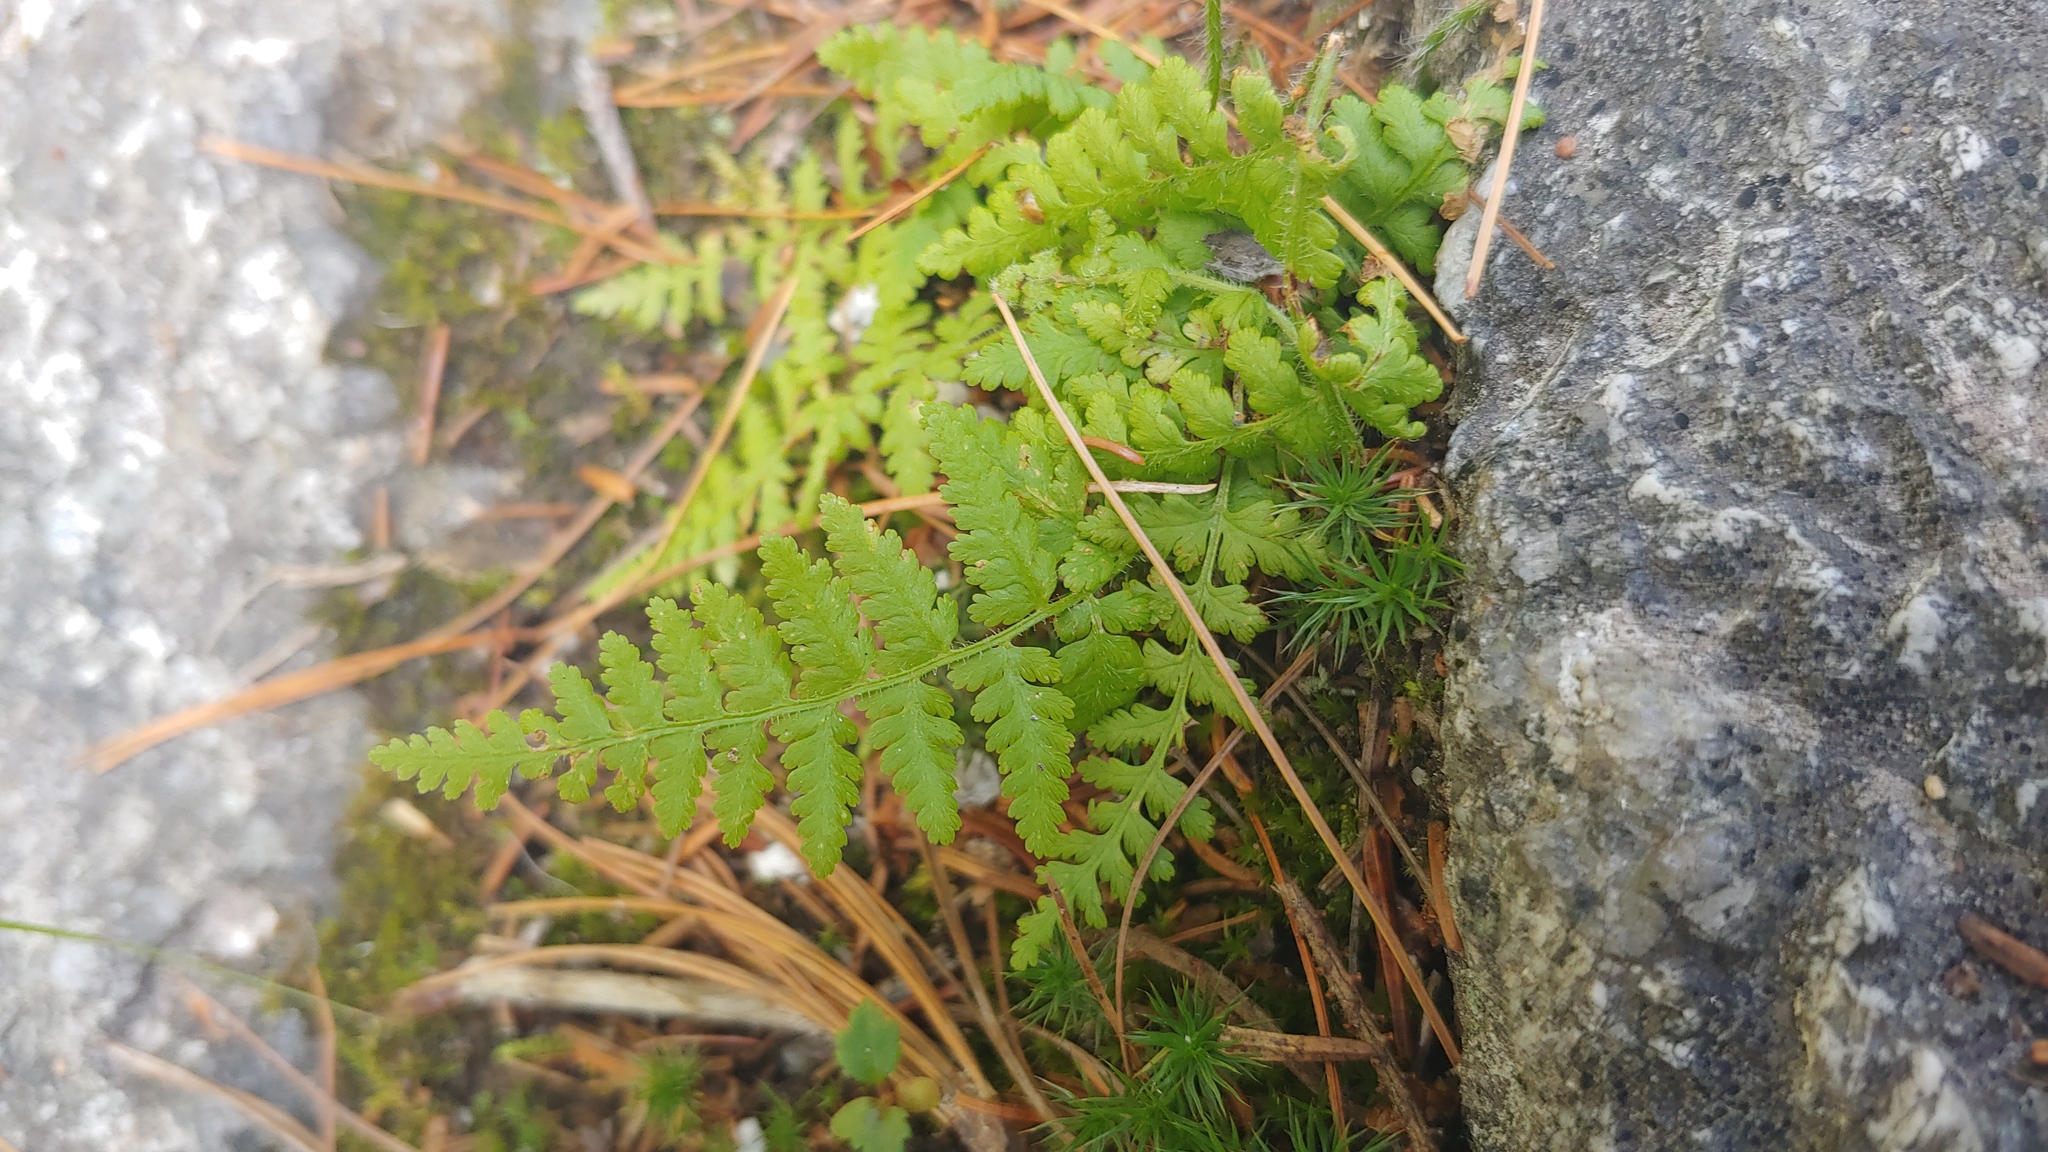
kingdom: Plantae
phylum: Tracheophyta
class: Polypodiopsida
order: Polypodiales
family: Dennstaedtiaceae
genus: Sitobolium
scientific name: Sitobolium punctilobum
